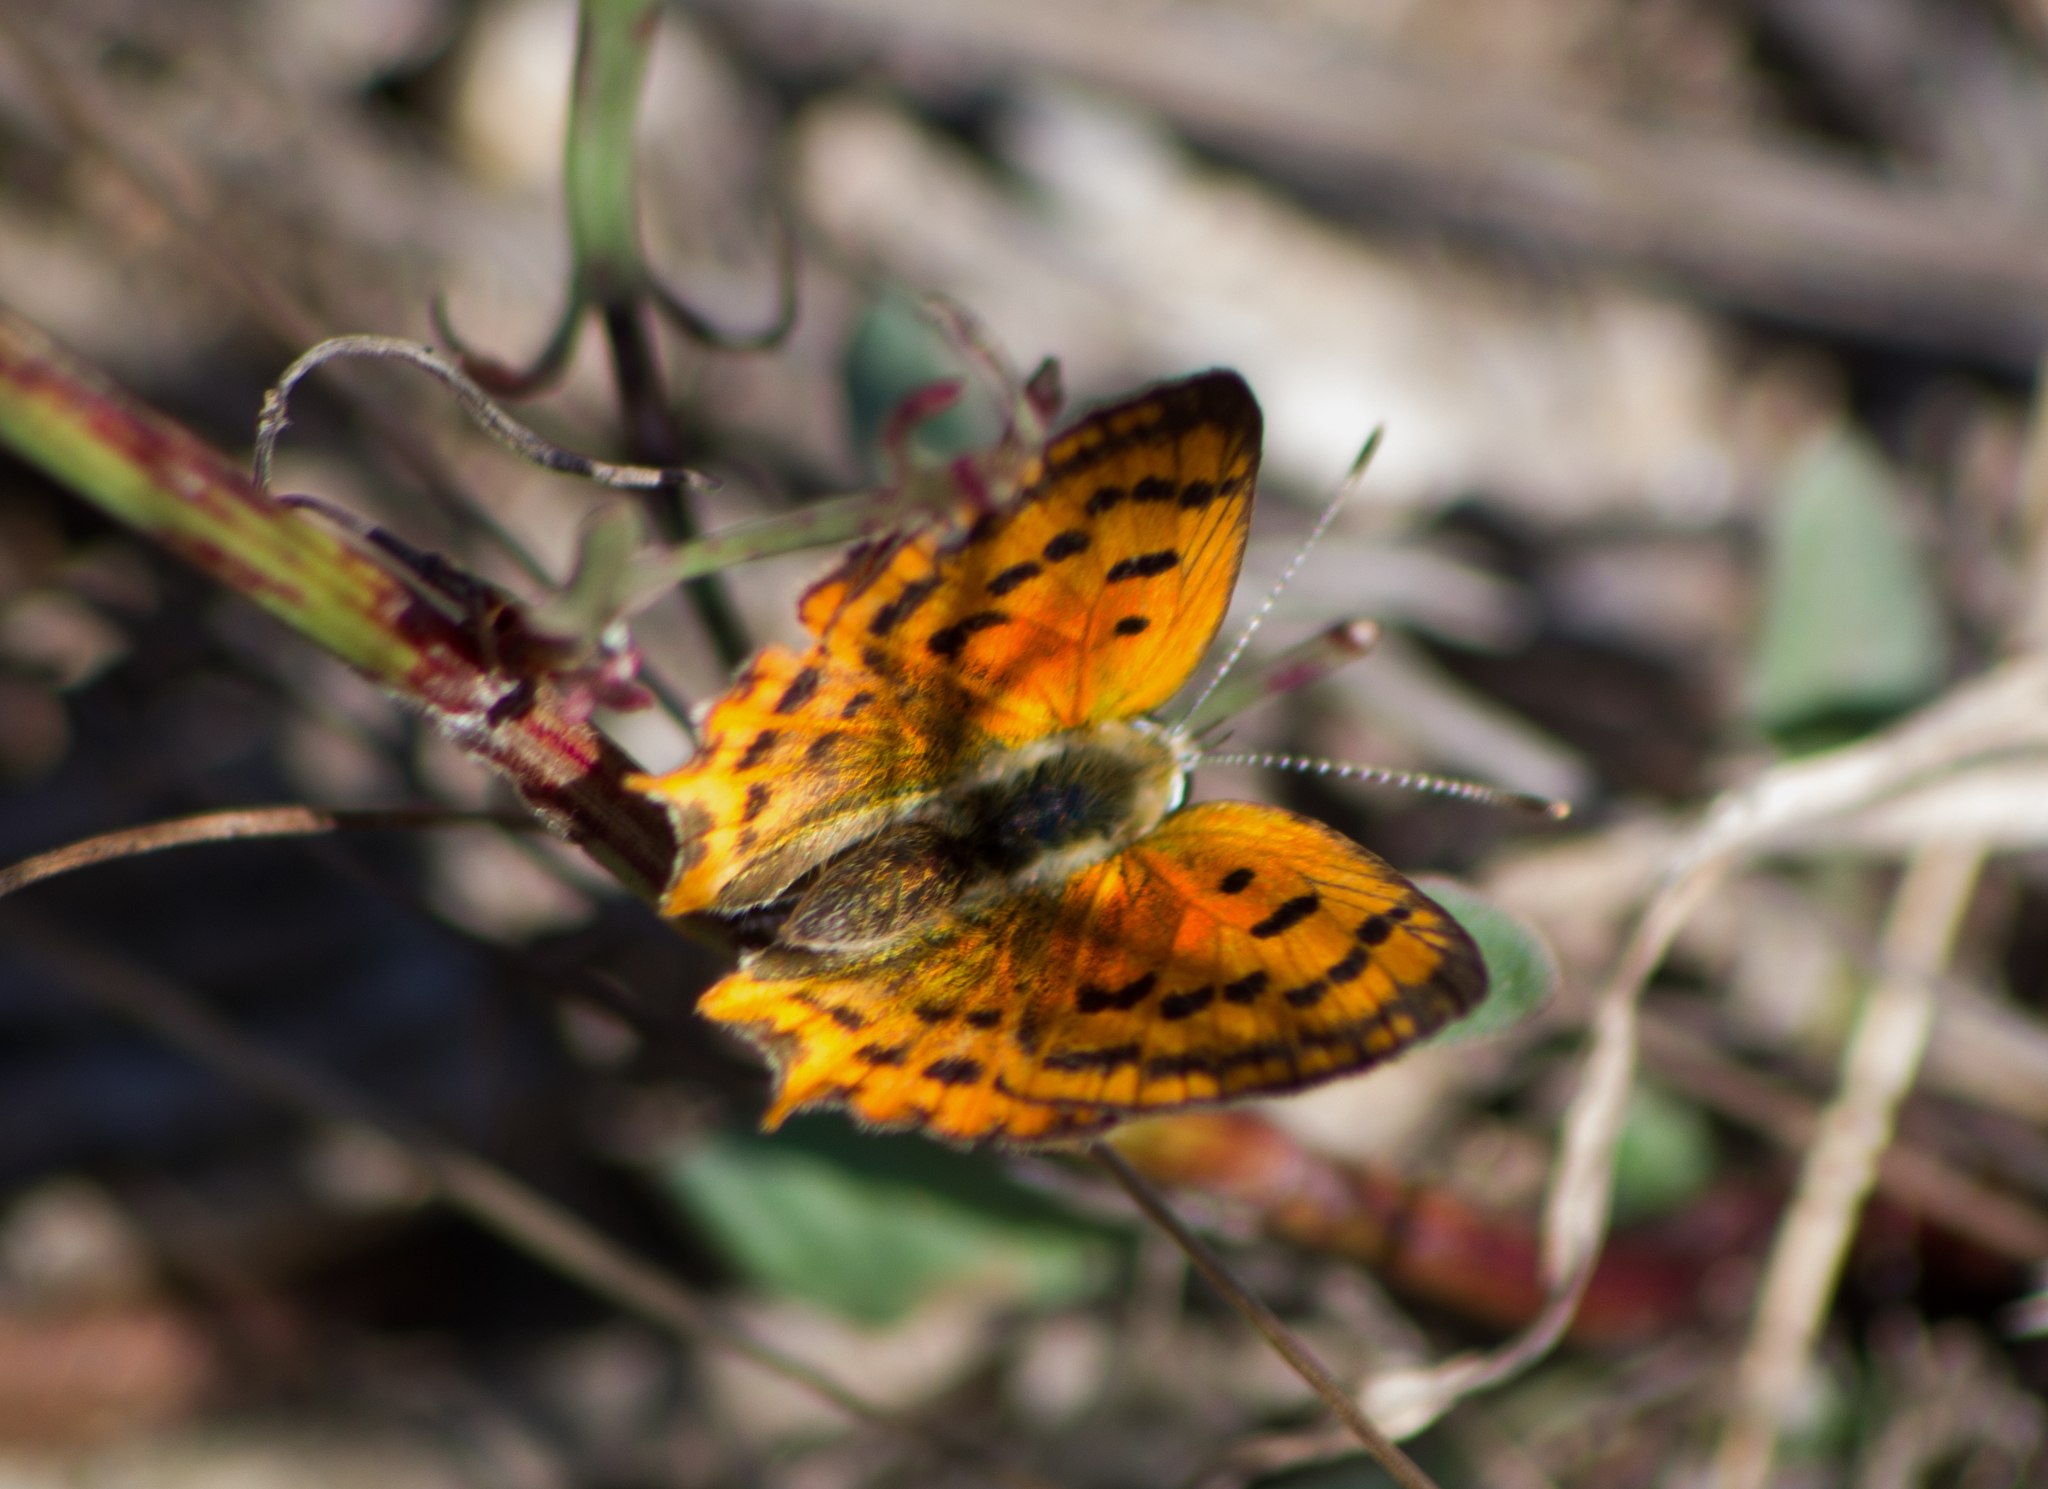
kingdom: Animalia
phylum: Arthropoda
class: Insecta
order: Lepidoptera
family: Lycaenidae
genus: Polyommatus
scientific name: Polyommatus ottomanus
